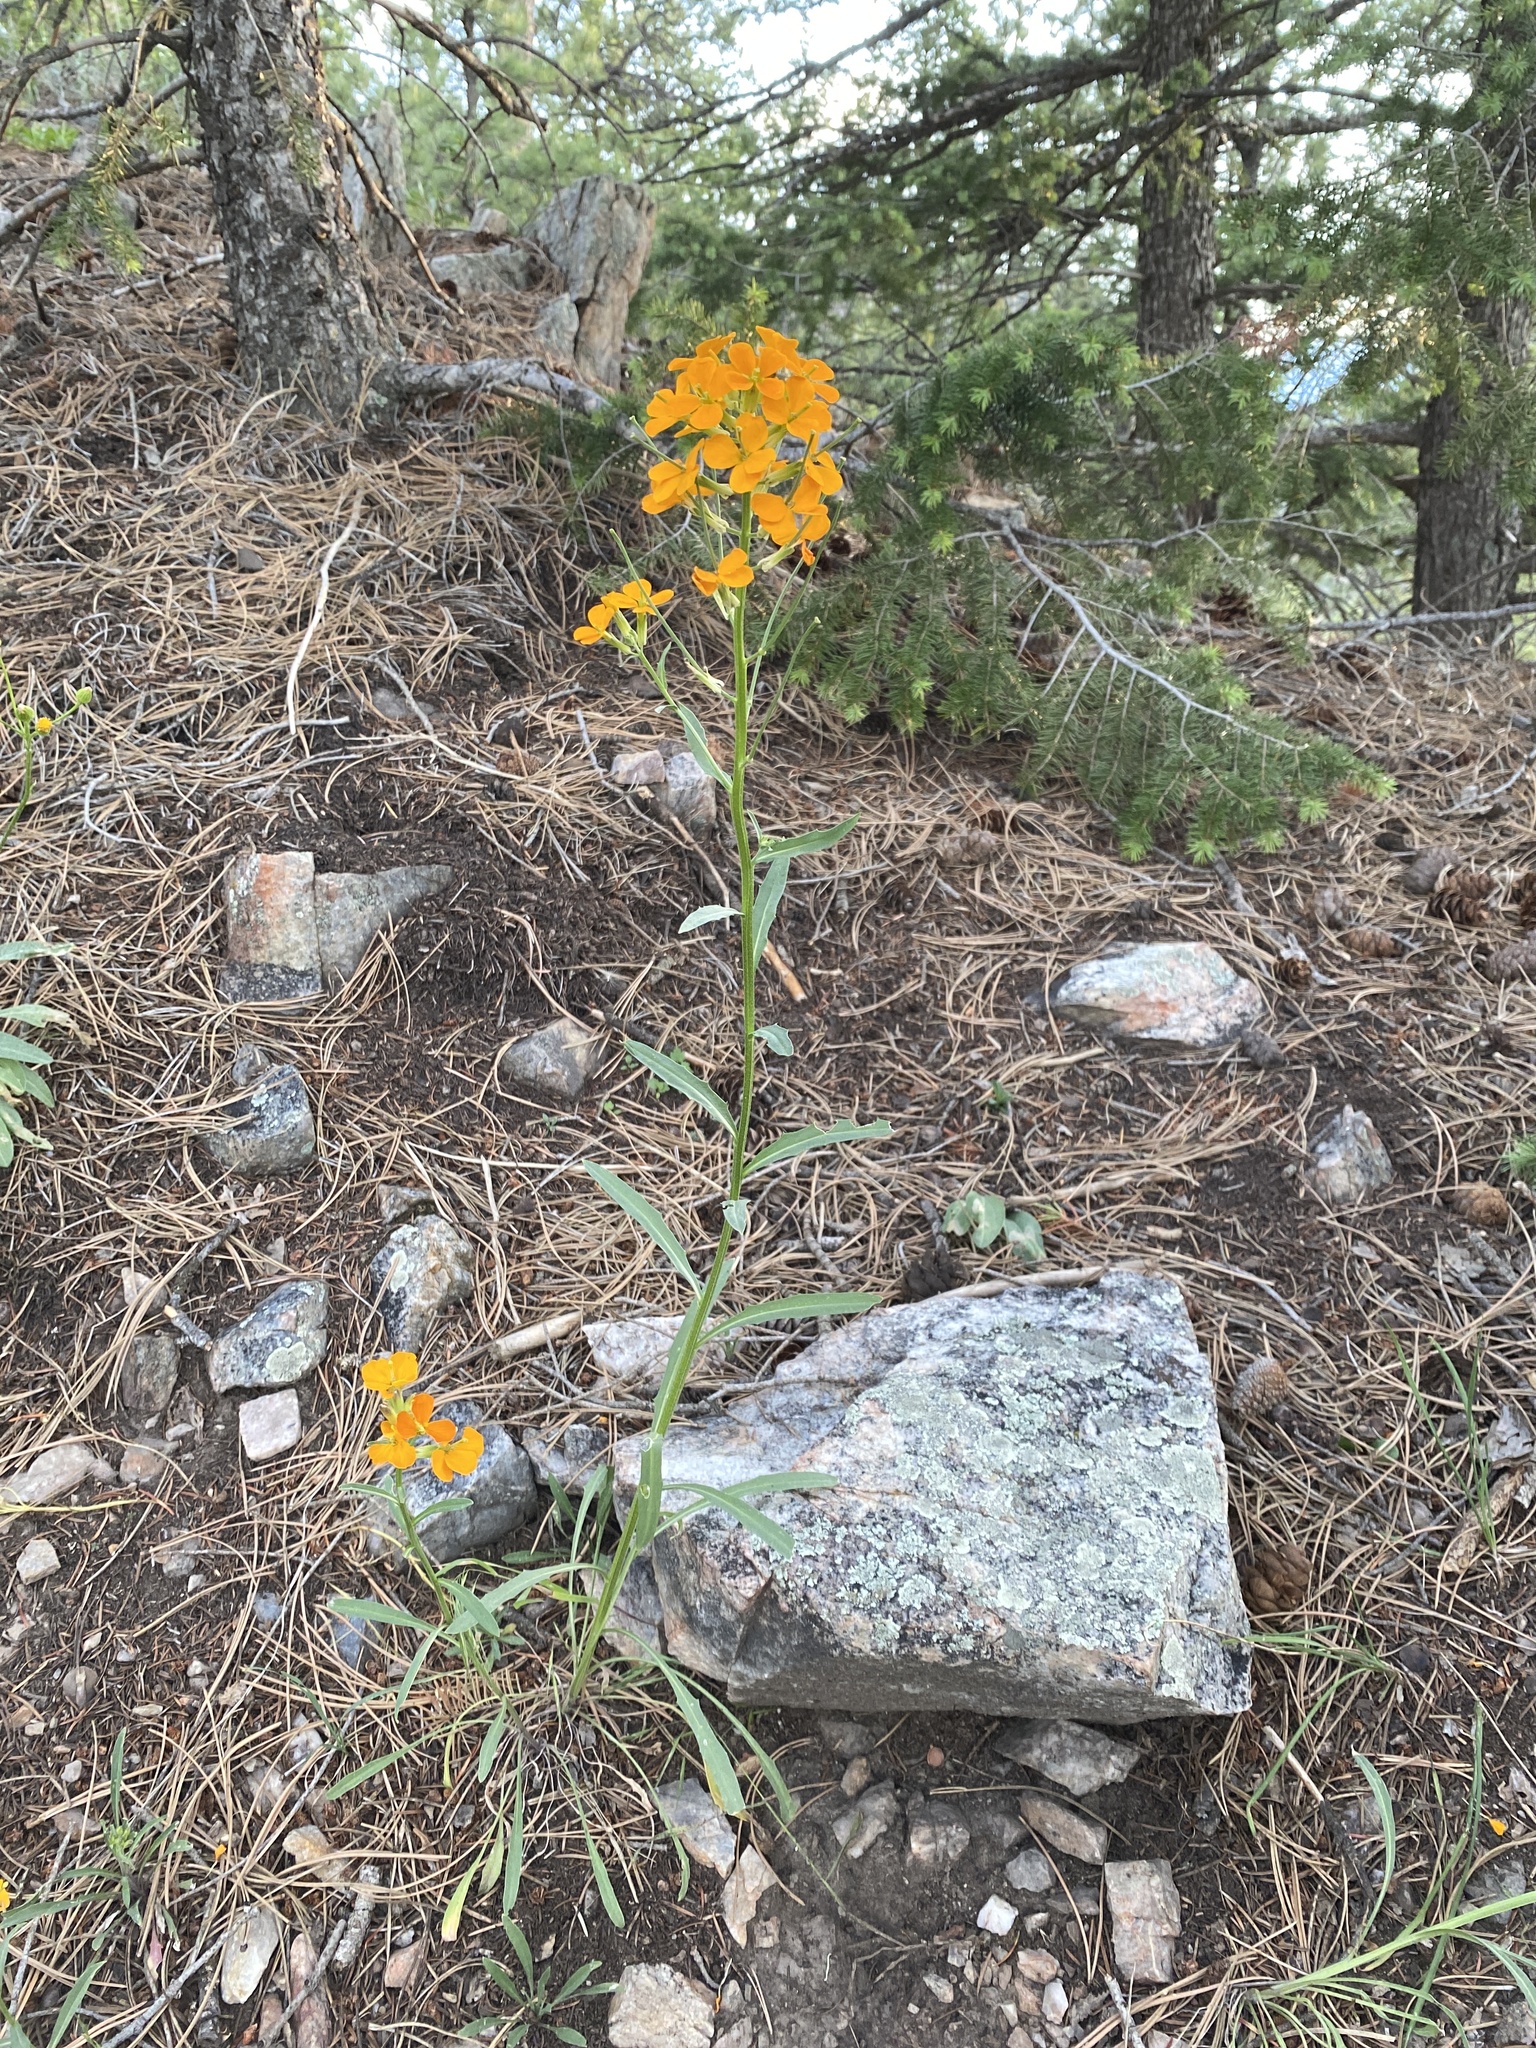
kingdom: Plantae
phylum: Tracheophyta
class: Magnoliopsida
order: Brassicales
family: Brassicaceae
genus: Erysimum
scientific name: Erysimum capitatum
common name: Western wallflower
